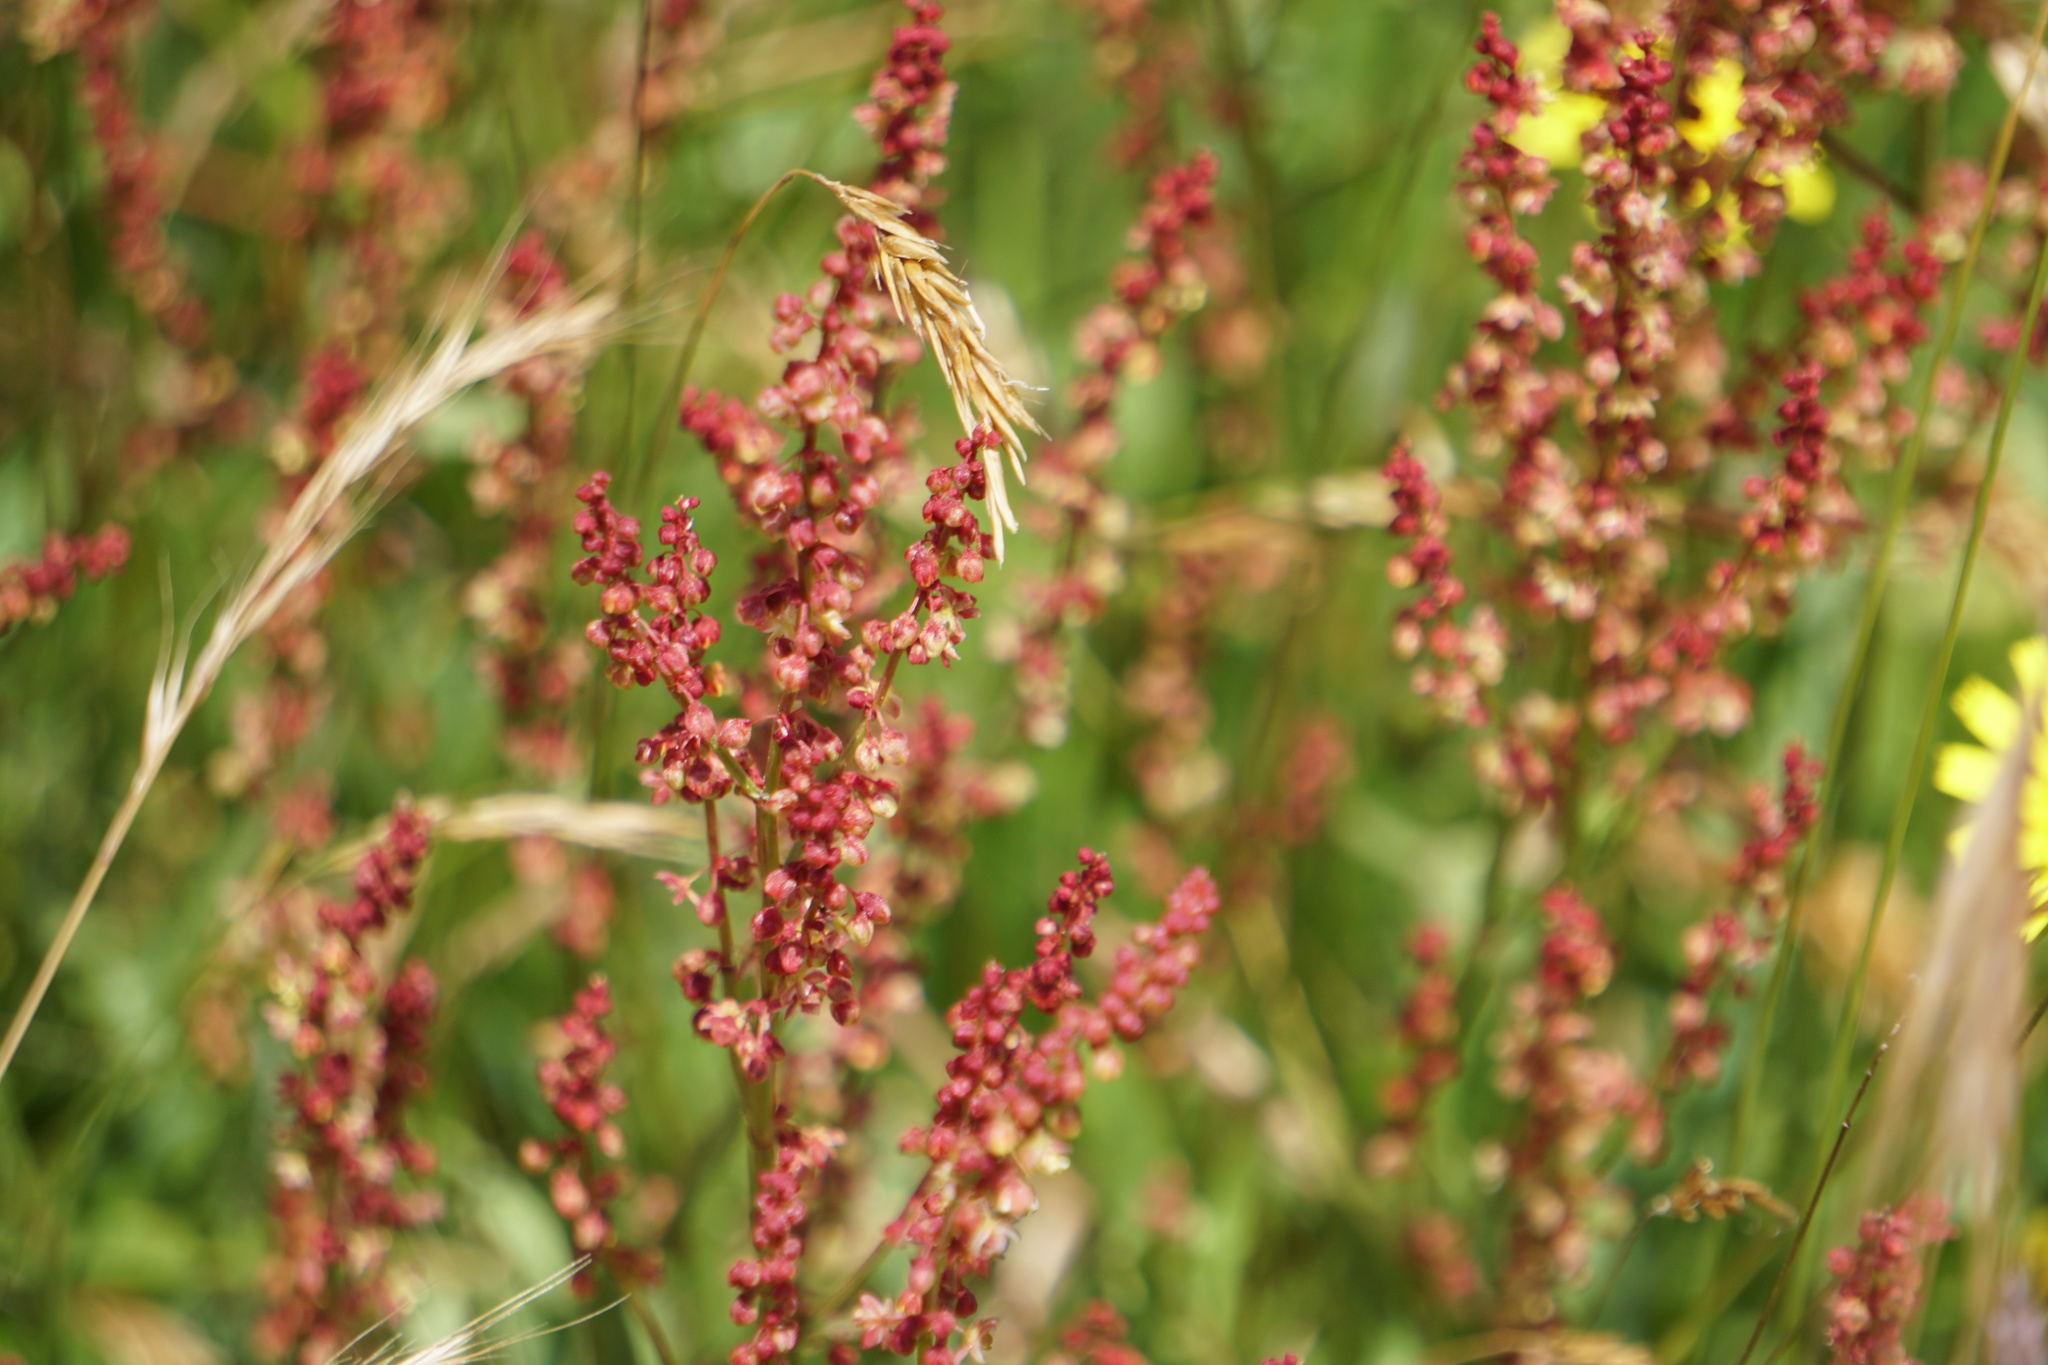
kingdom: Plantae
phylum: Tracheophyta
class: Magnoliopsida
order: Caryophyllales
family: Polygonaceae
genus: Rumex
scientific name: Rumex acetosella
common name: Common sheep sorrel
